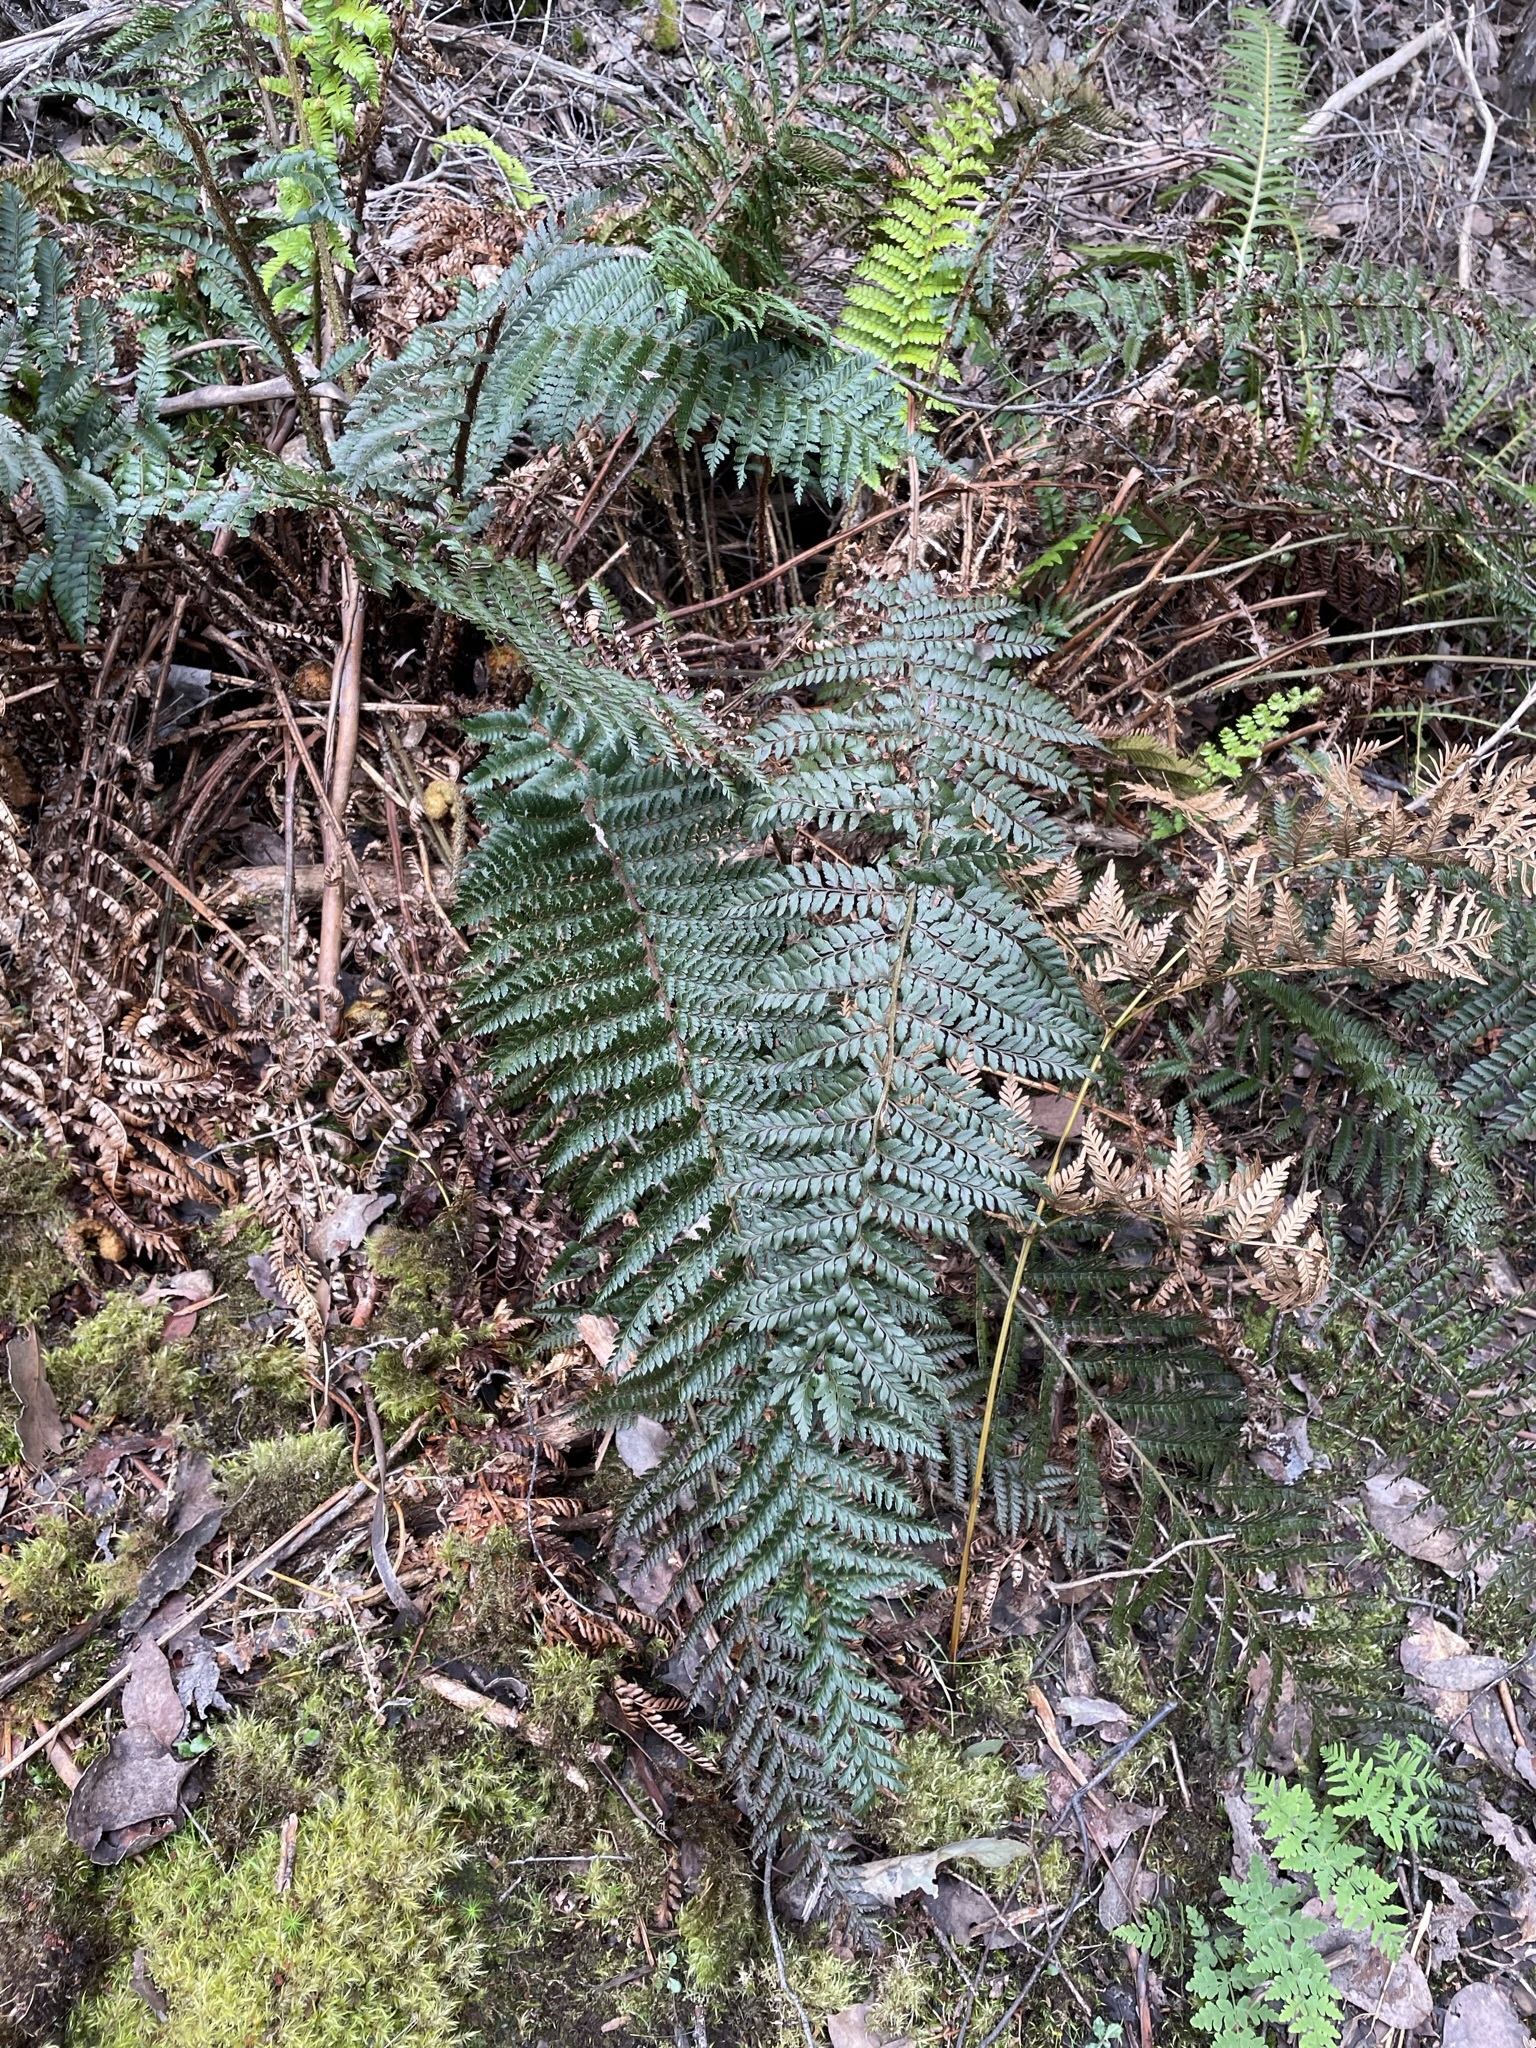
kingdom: Plantae
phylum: Tracheophyta
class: Polypodiopsida
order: Polypodiales
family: Dryopteridaceae
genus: Polystichum
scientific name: Polystichum proliferum
